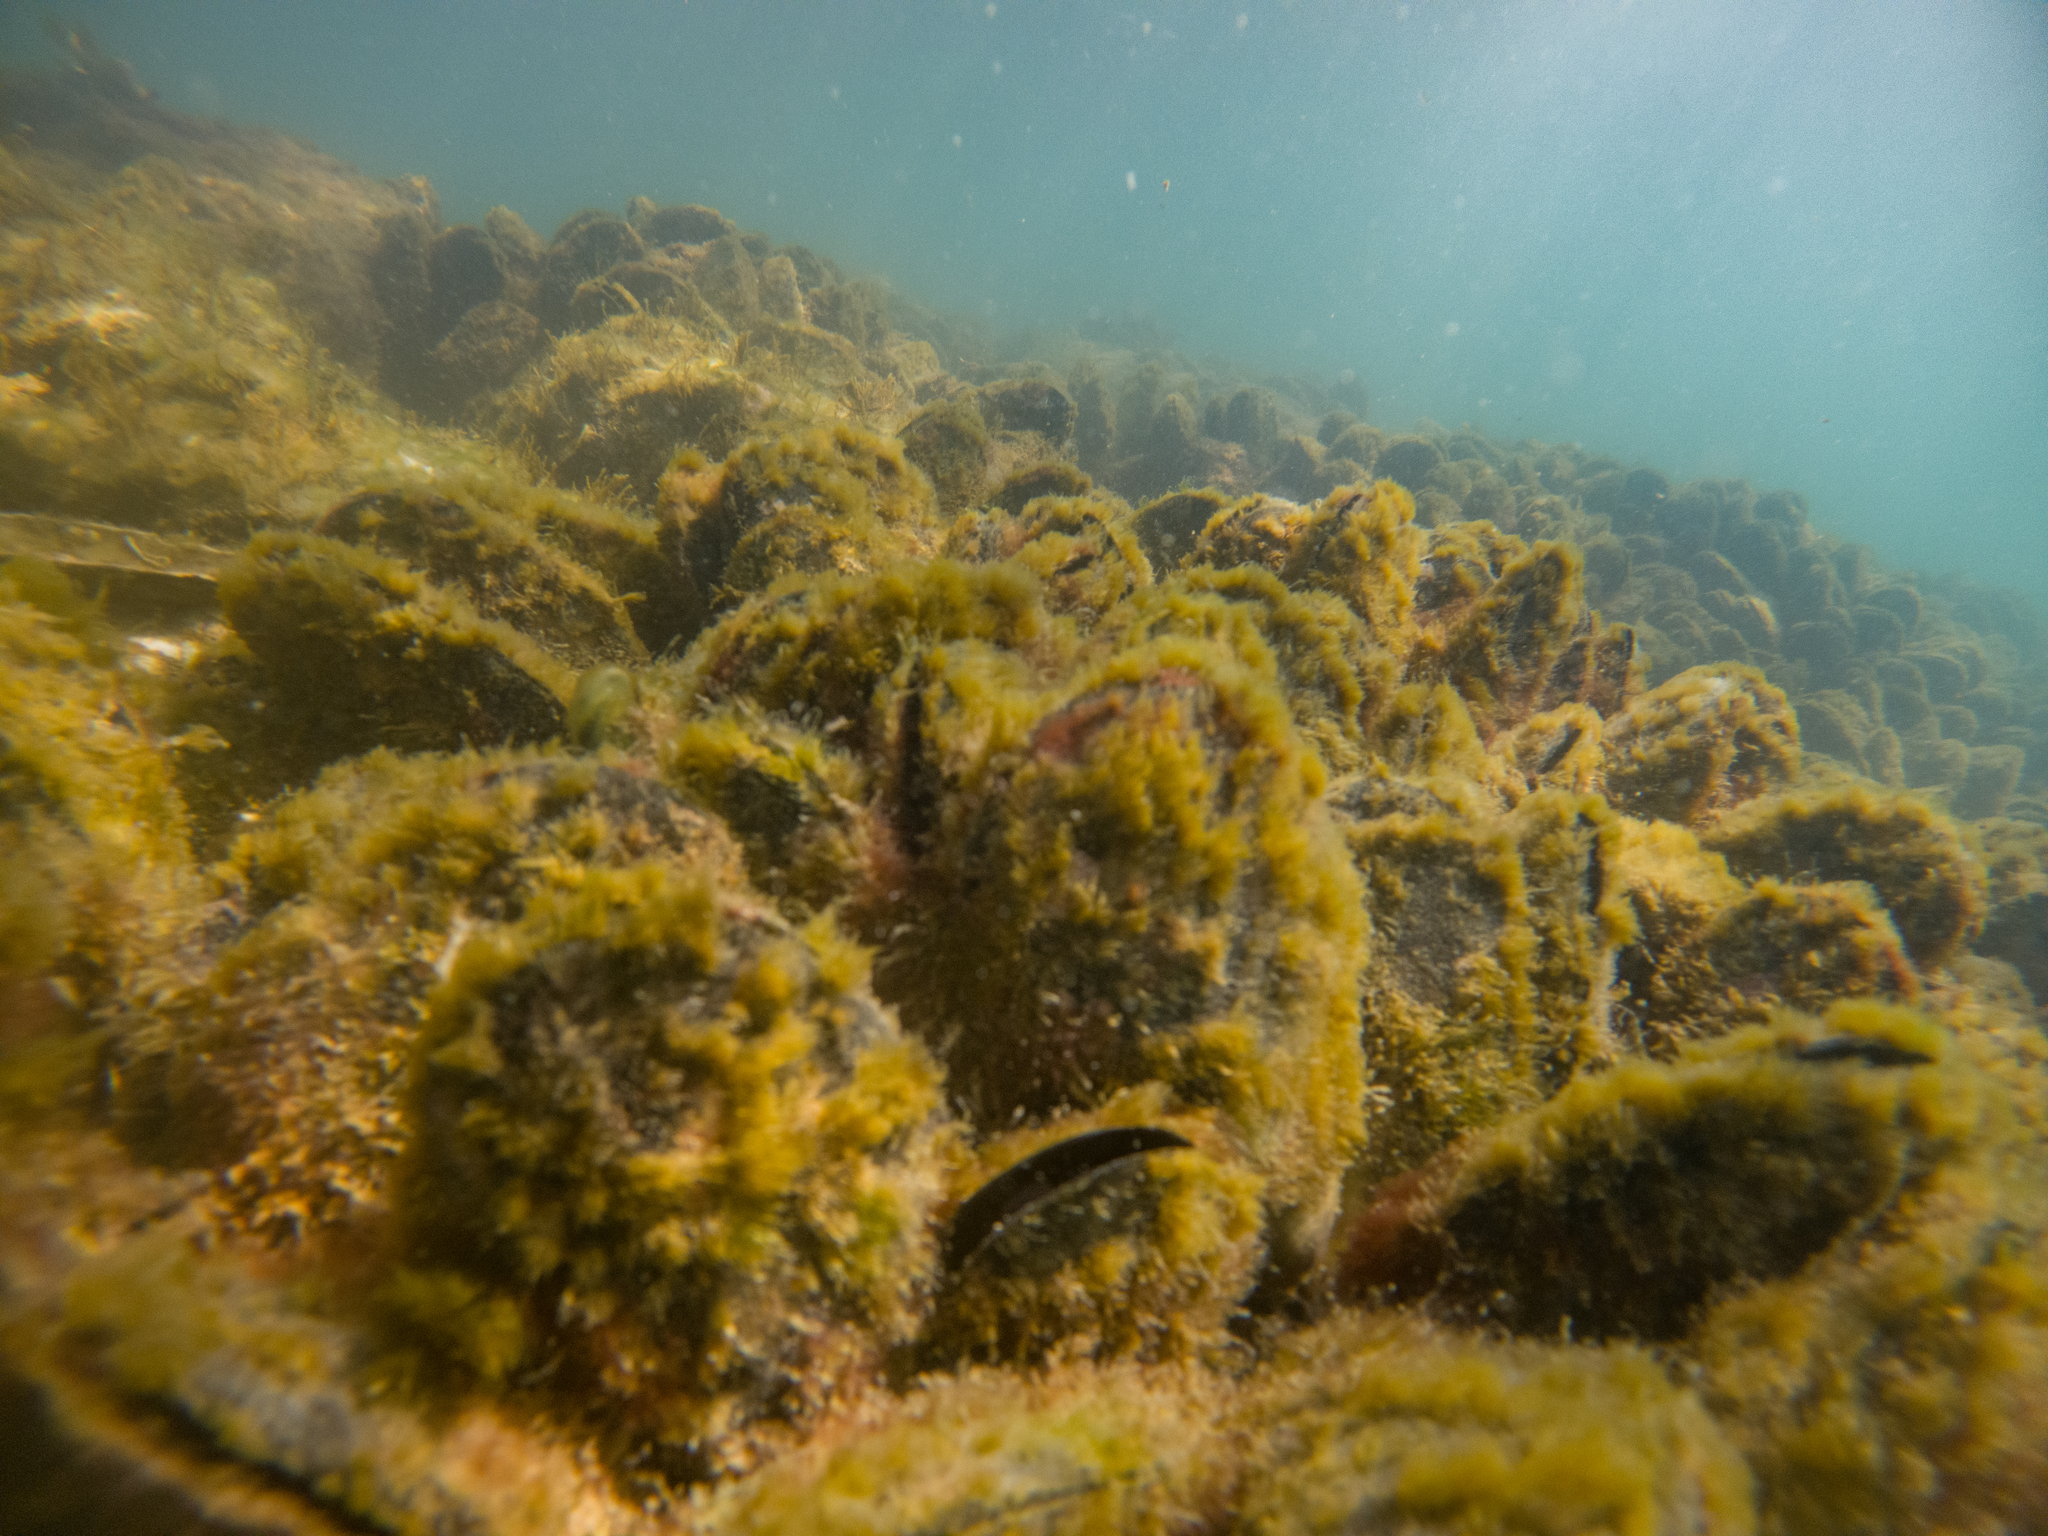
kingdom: Animalia
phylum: Mollusca
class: Bivalvia
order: Mytilida
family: Mytilidae
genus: Perna
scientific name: Perna canaliculus
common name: New zealand greenshelltm
